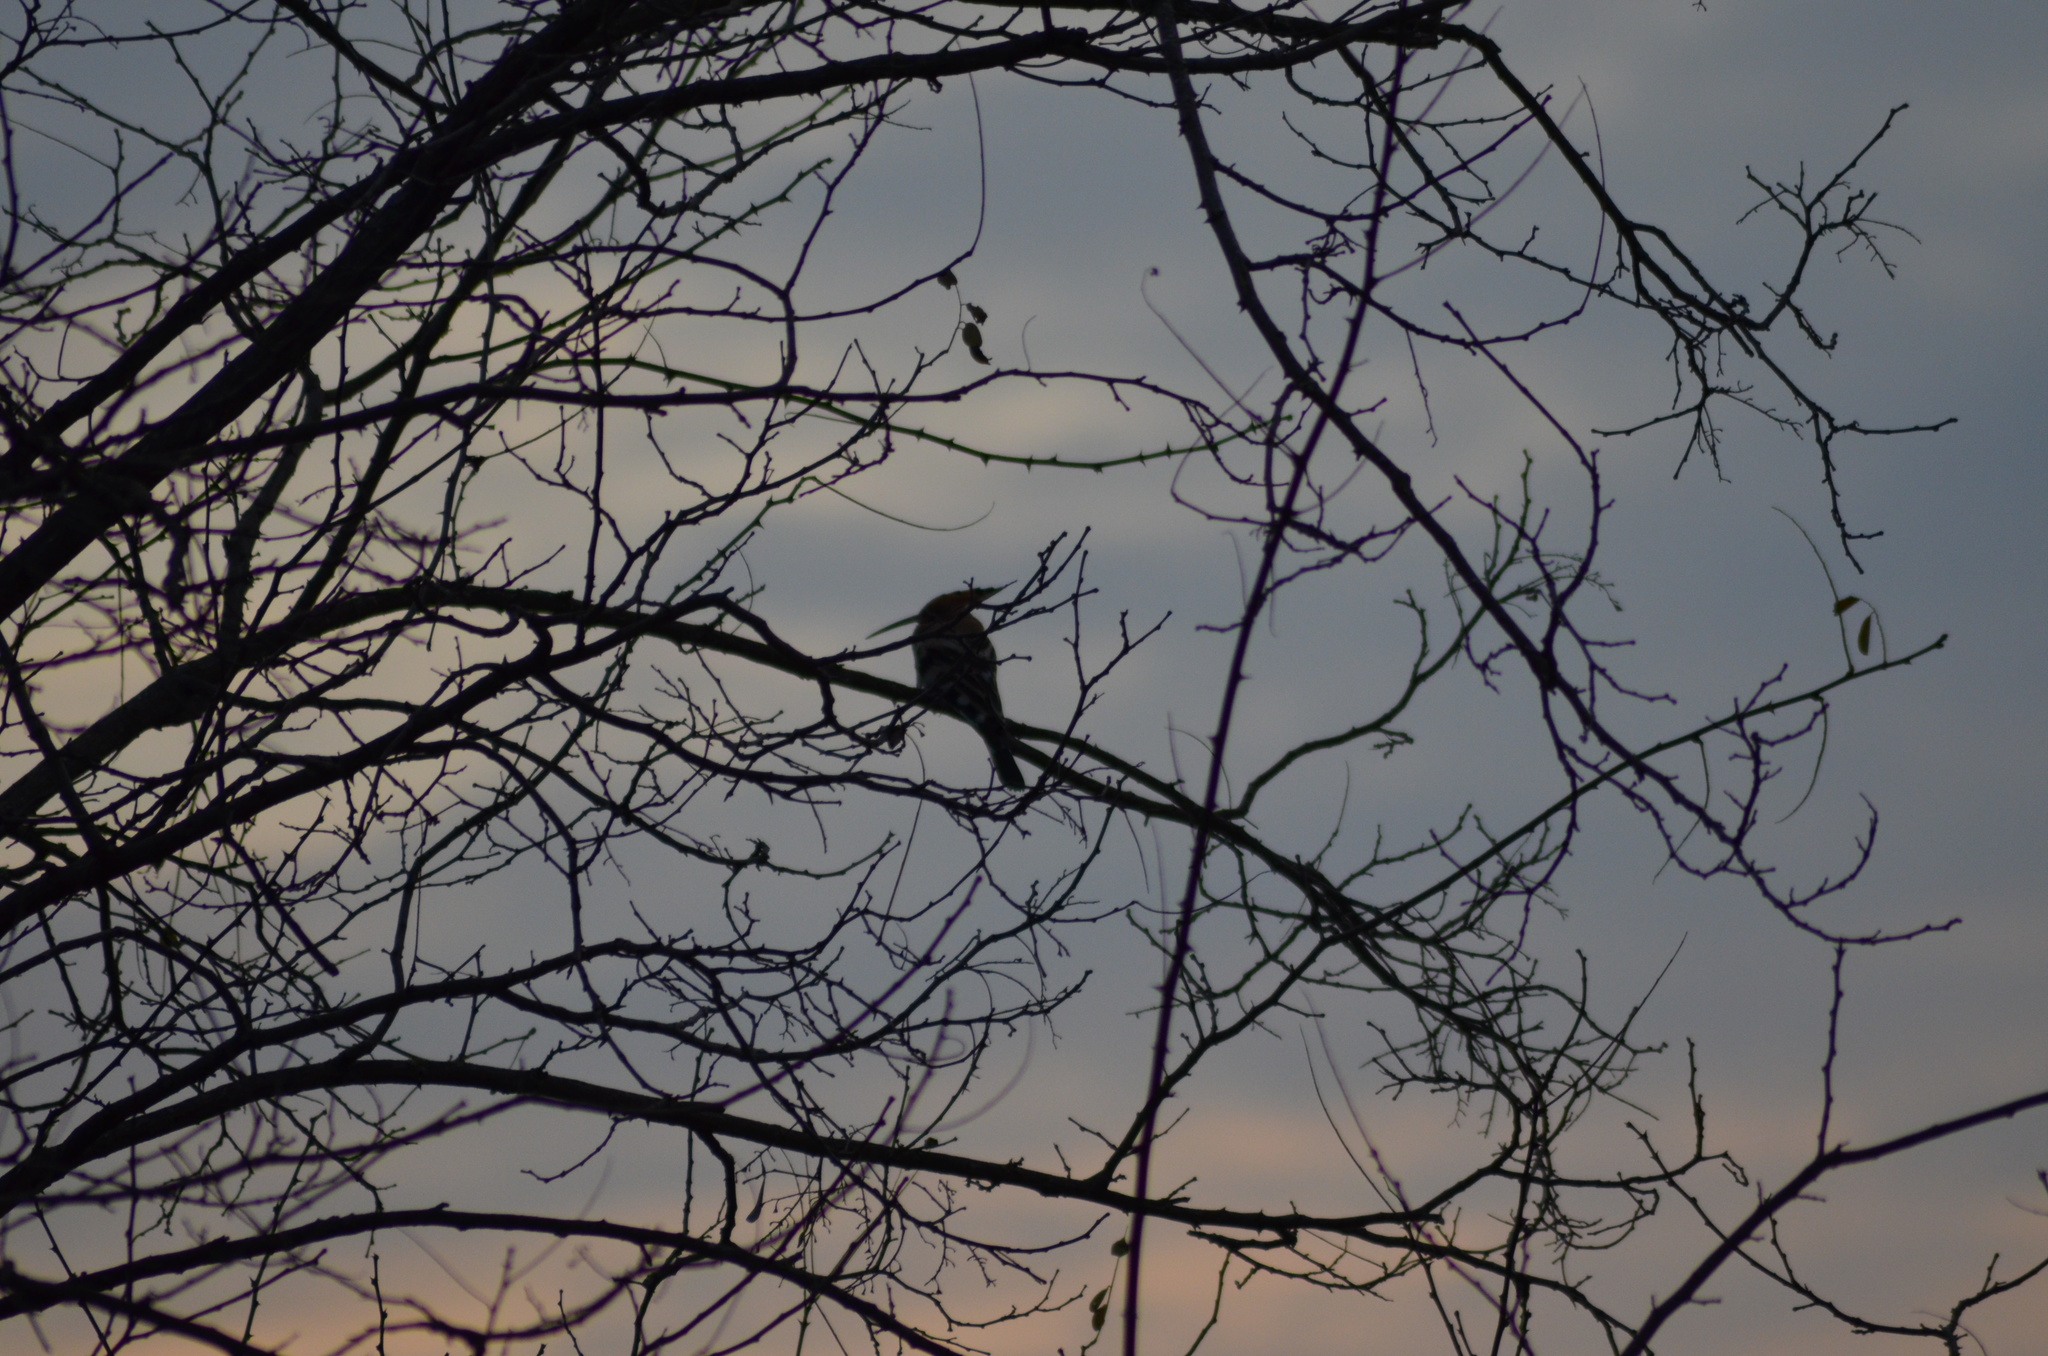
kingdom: Animalia
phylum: Chordata
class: Aves
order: Bucerotiformes
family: Upupidae
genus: Upupa
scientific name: Upupa epops
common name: Eurasian hoopoe
